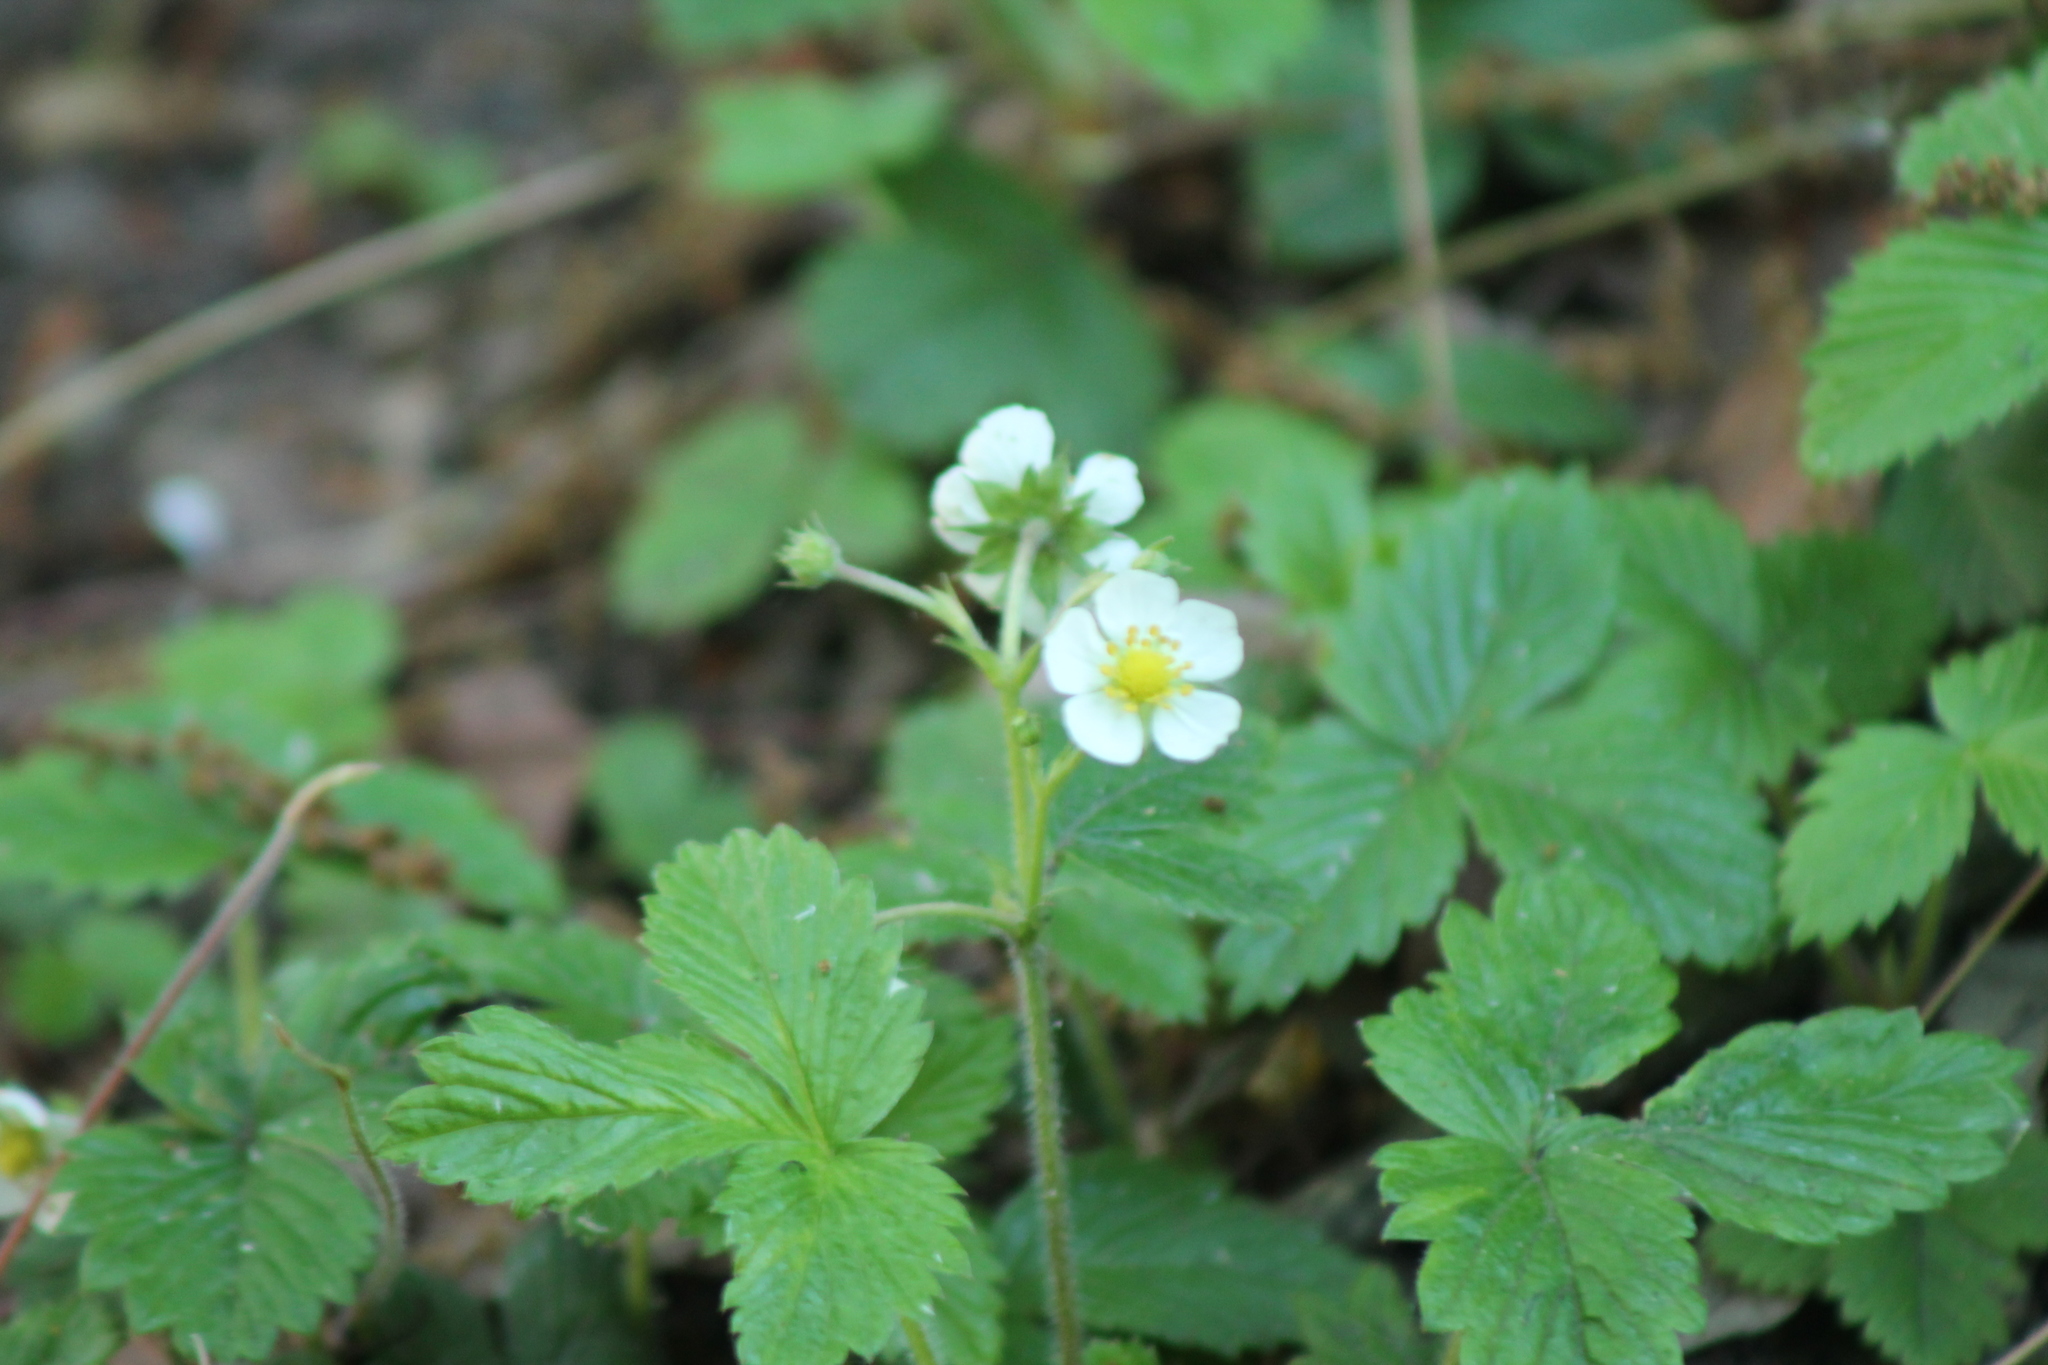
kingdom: Plantae
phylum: Tracheophyta
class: Magnoliopsida
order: Rosales
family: Rosaceae
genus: Fragaria
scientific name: Fragaria vesca
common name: Wild strawberry
